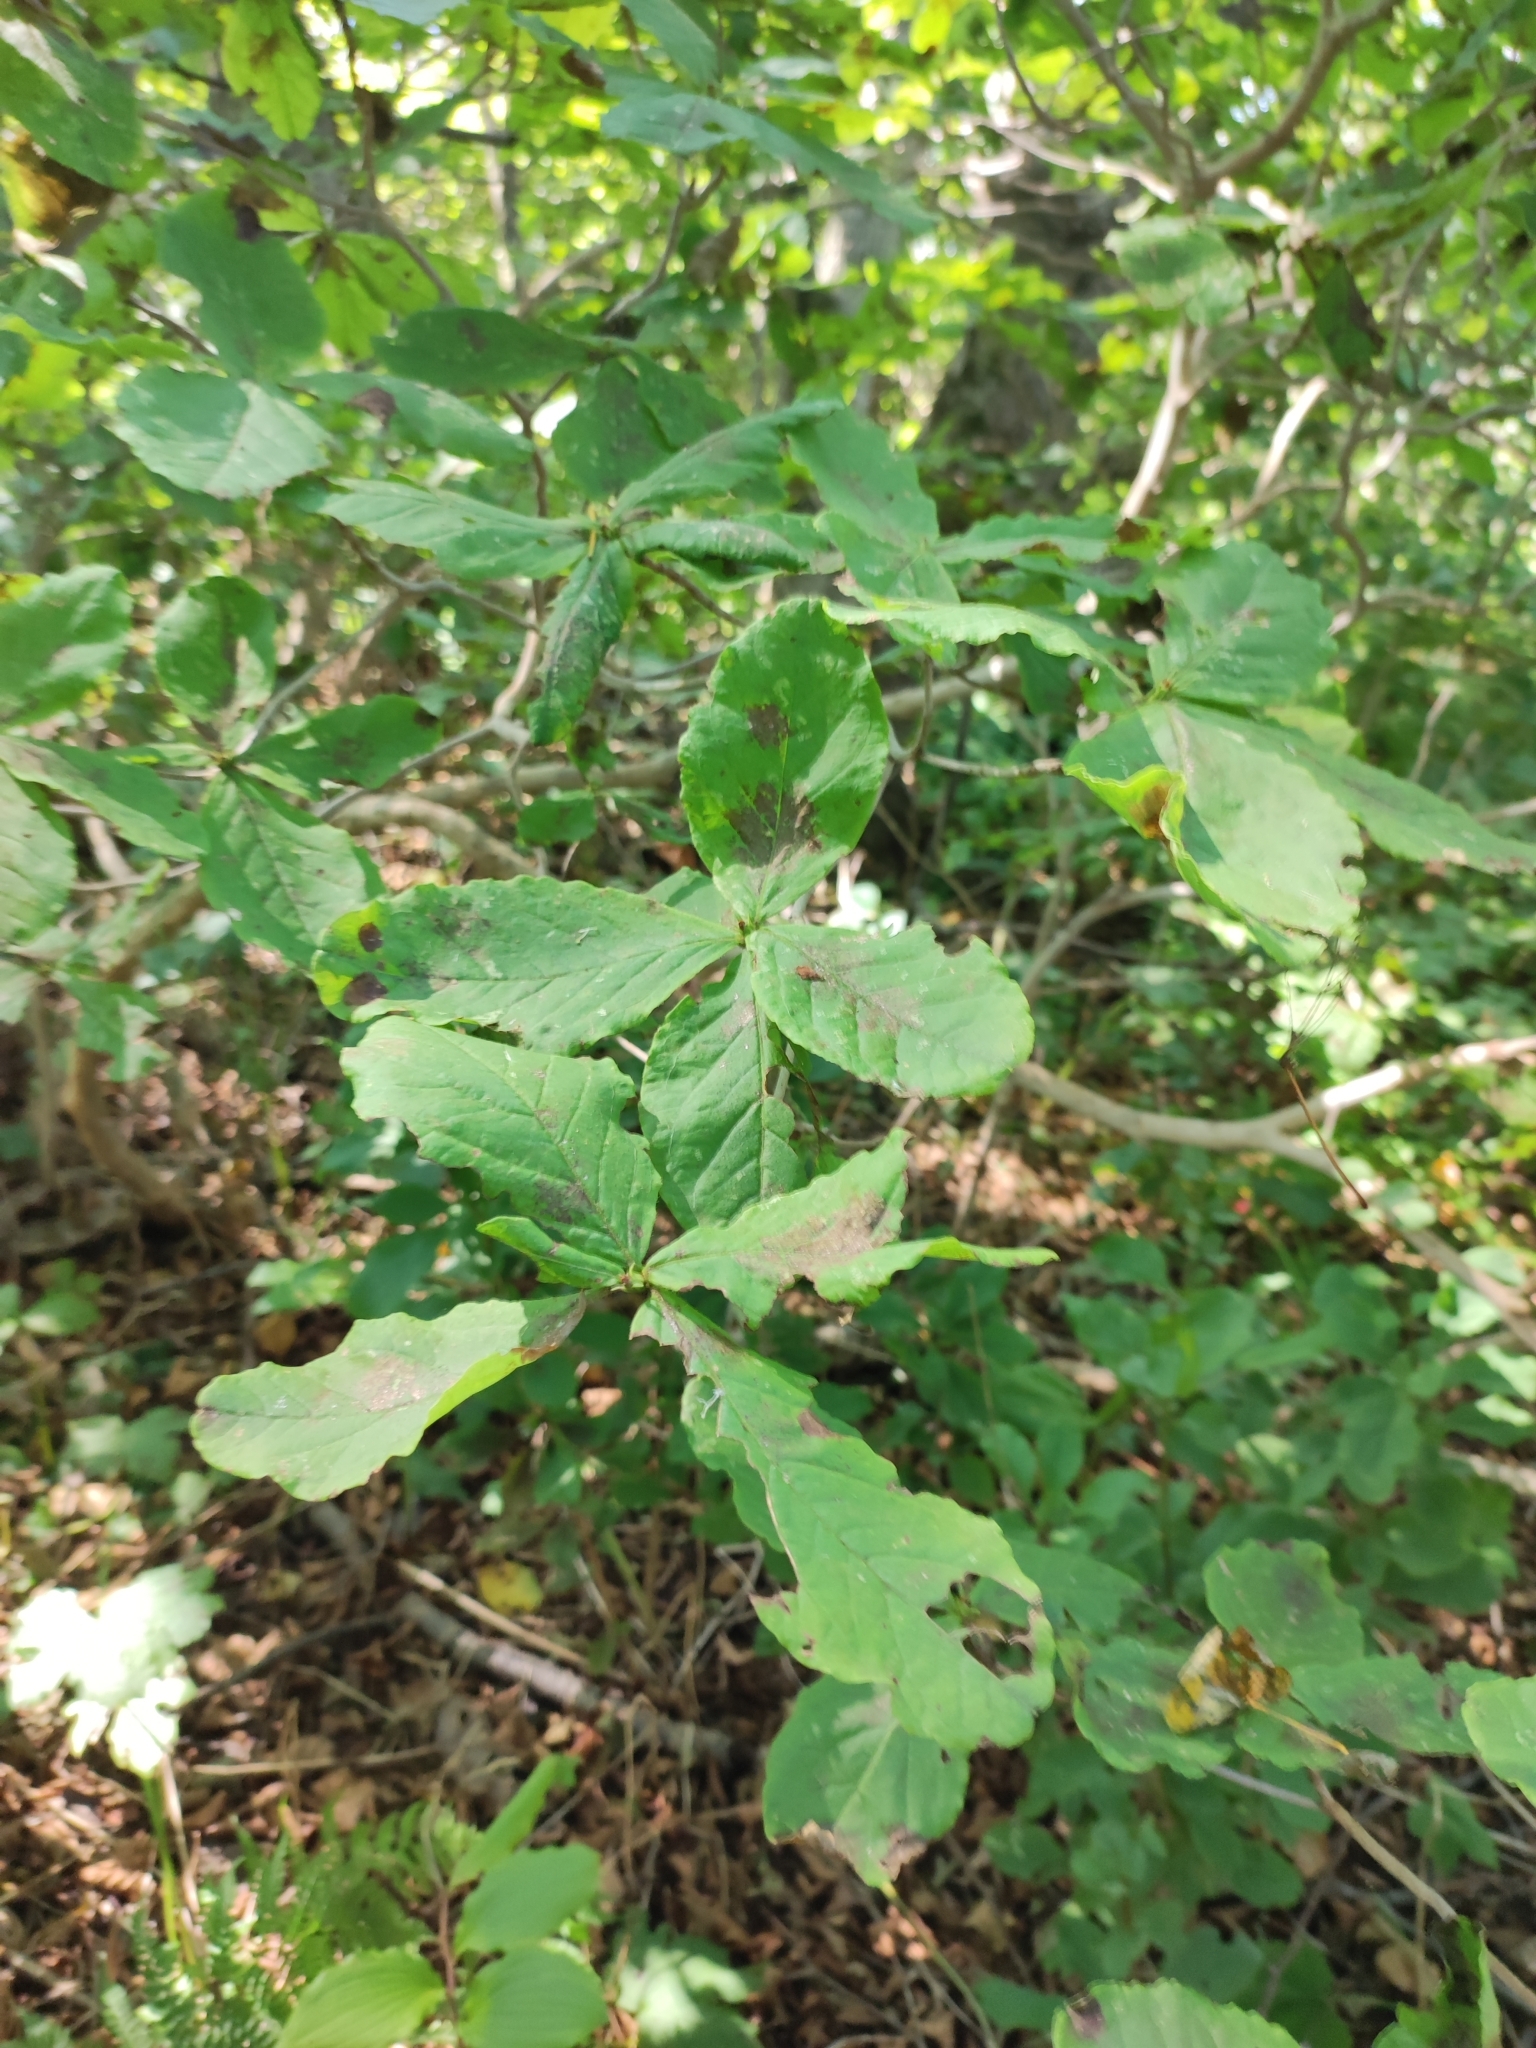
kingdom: Plantae
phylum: Tracheophyta
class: Magnoliopsida
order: Ericales
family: Ericaceae
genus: Rhododendron
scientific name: Rhododendron schlippenbachii
